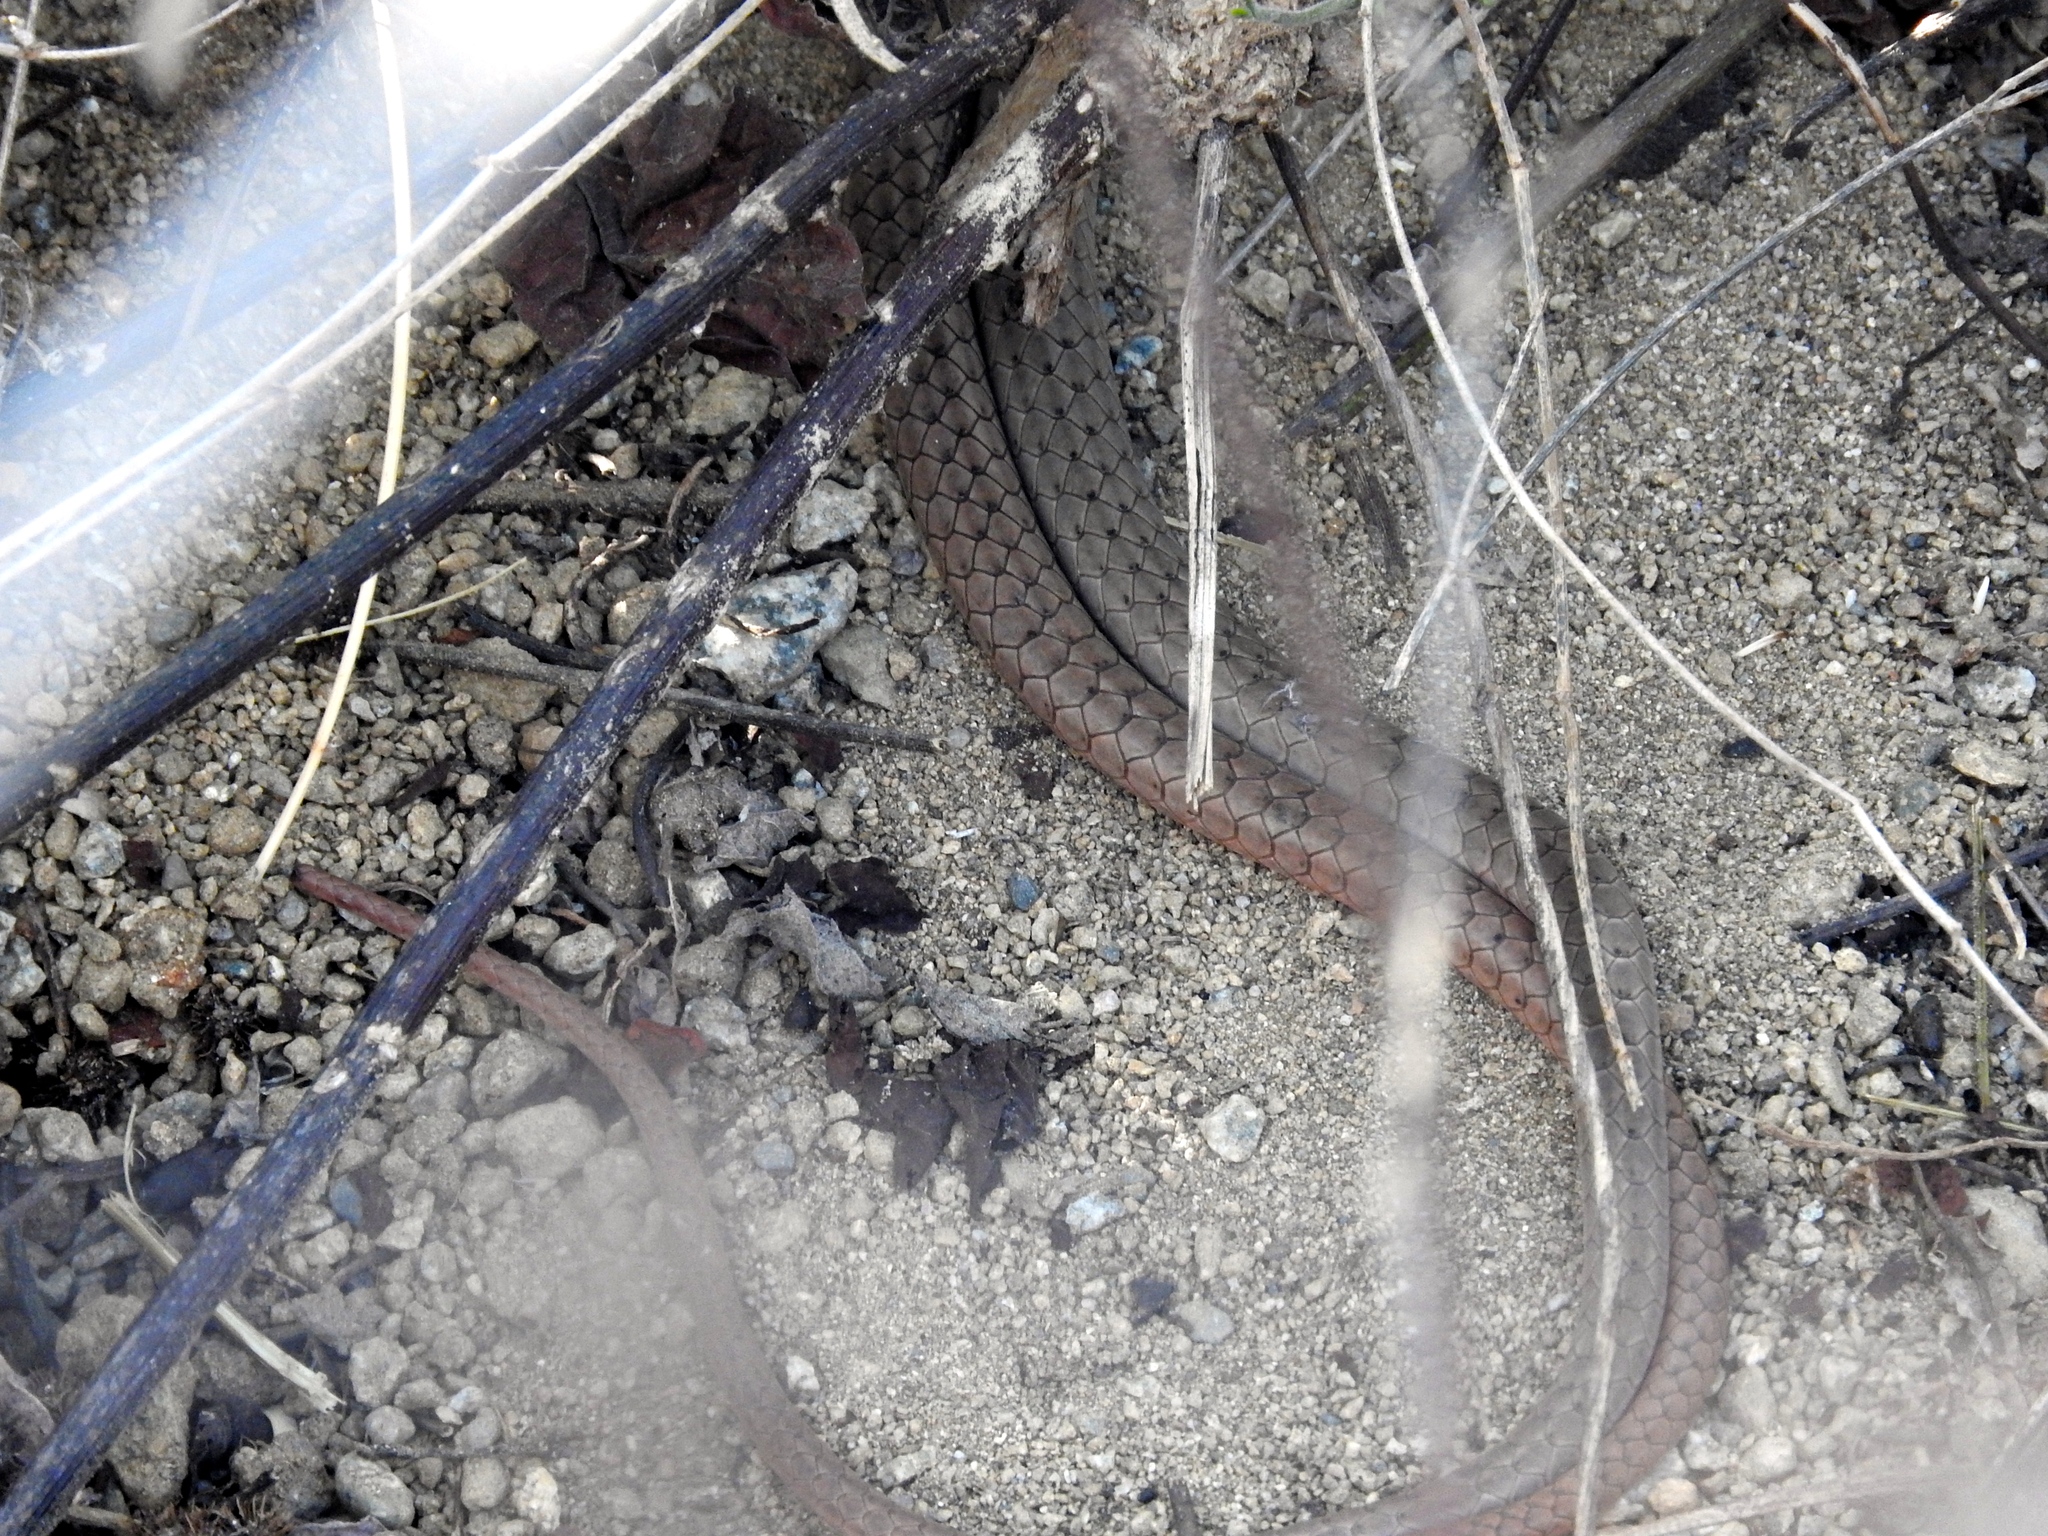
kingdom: Animalia
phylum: Chordata
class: Squamata
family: Colubridae
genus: Masticophis
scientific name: Masticophis
